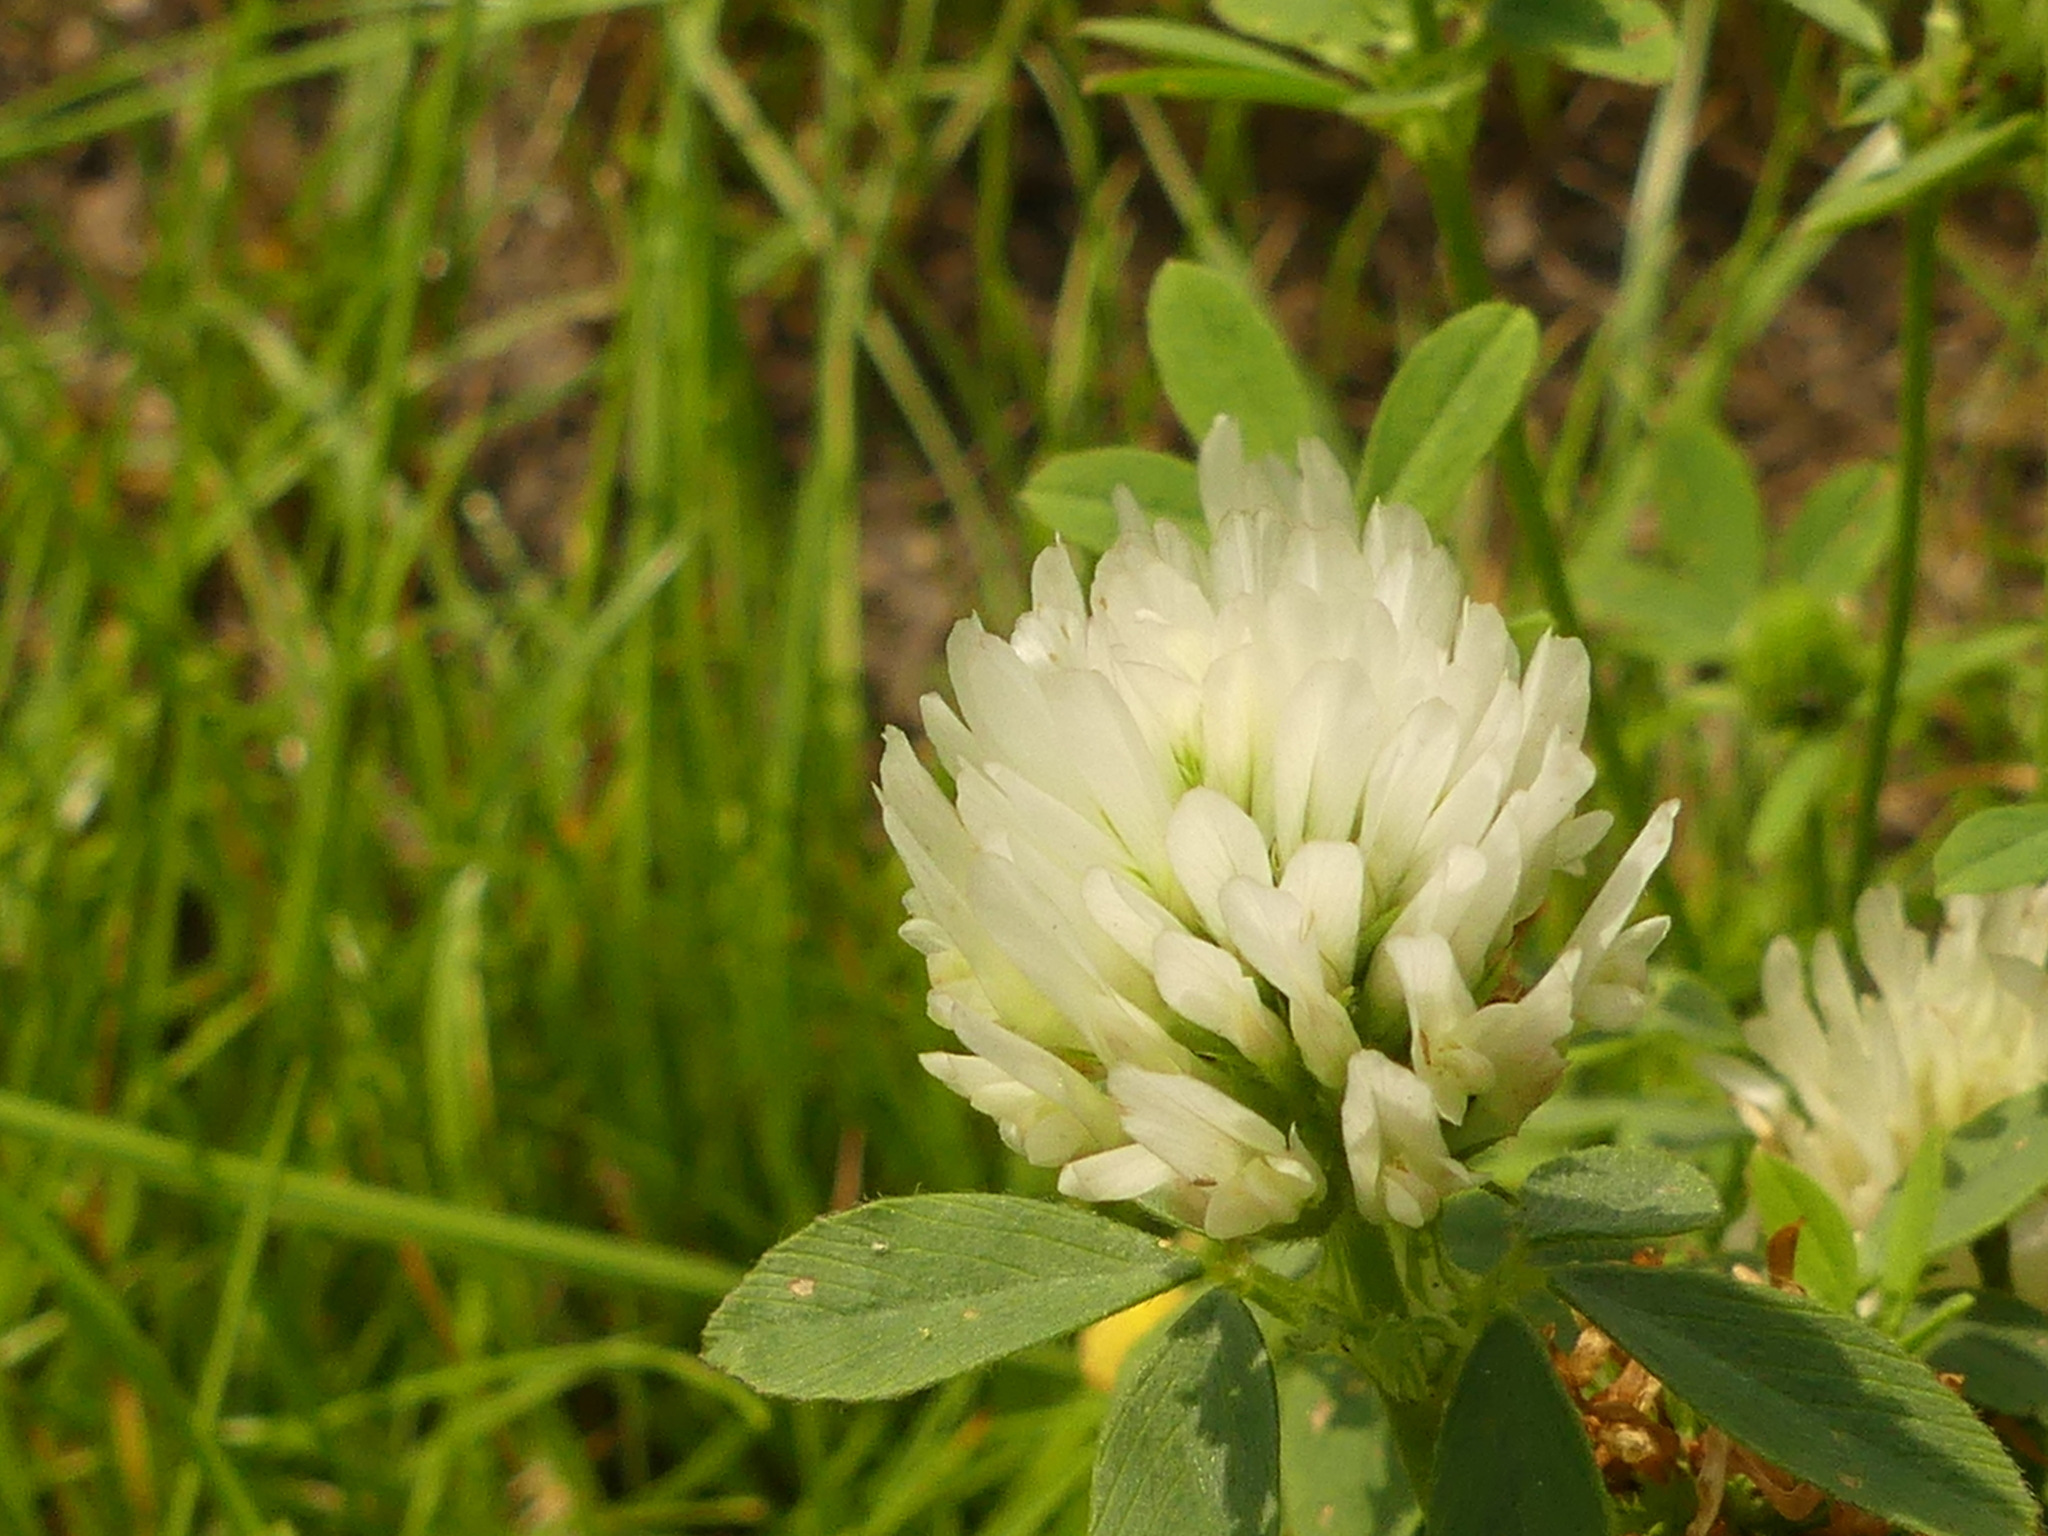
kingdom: Plantae
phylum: Tracheophyta
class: Magnoliopsida
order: Fabales
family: Fabaceae
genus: Trifolium
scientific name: Trifolium pratense
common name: Red clover
